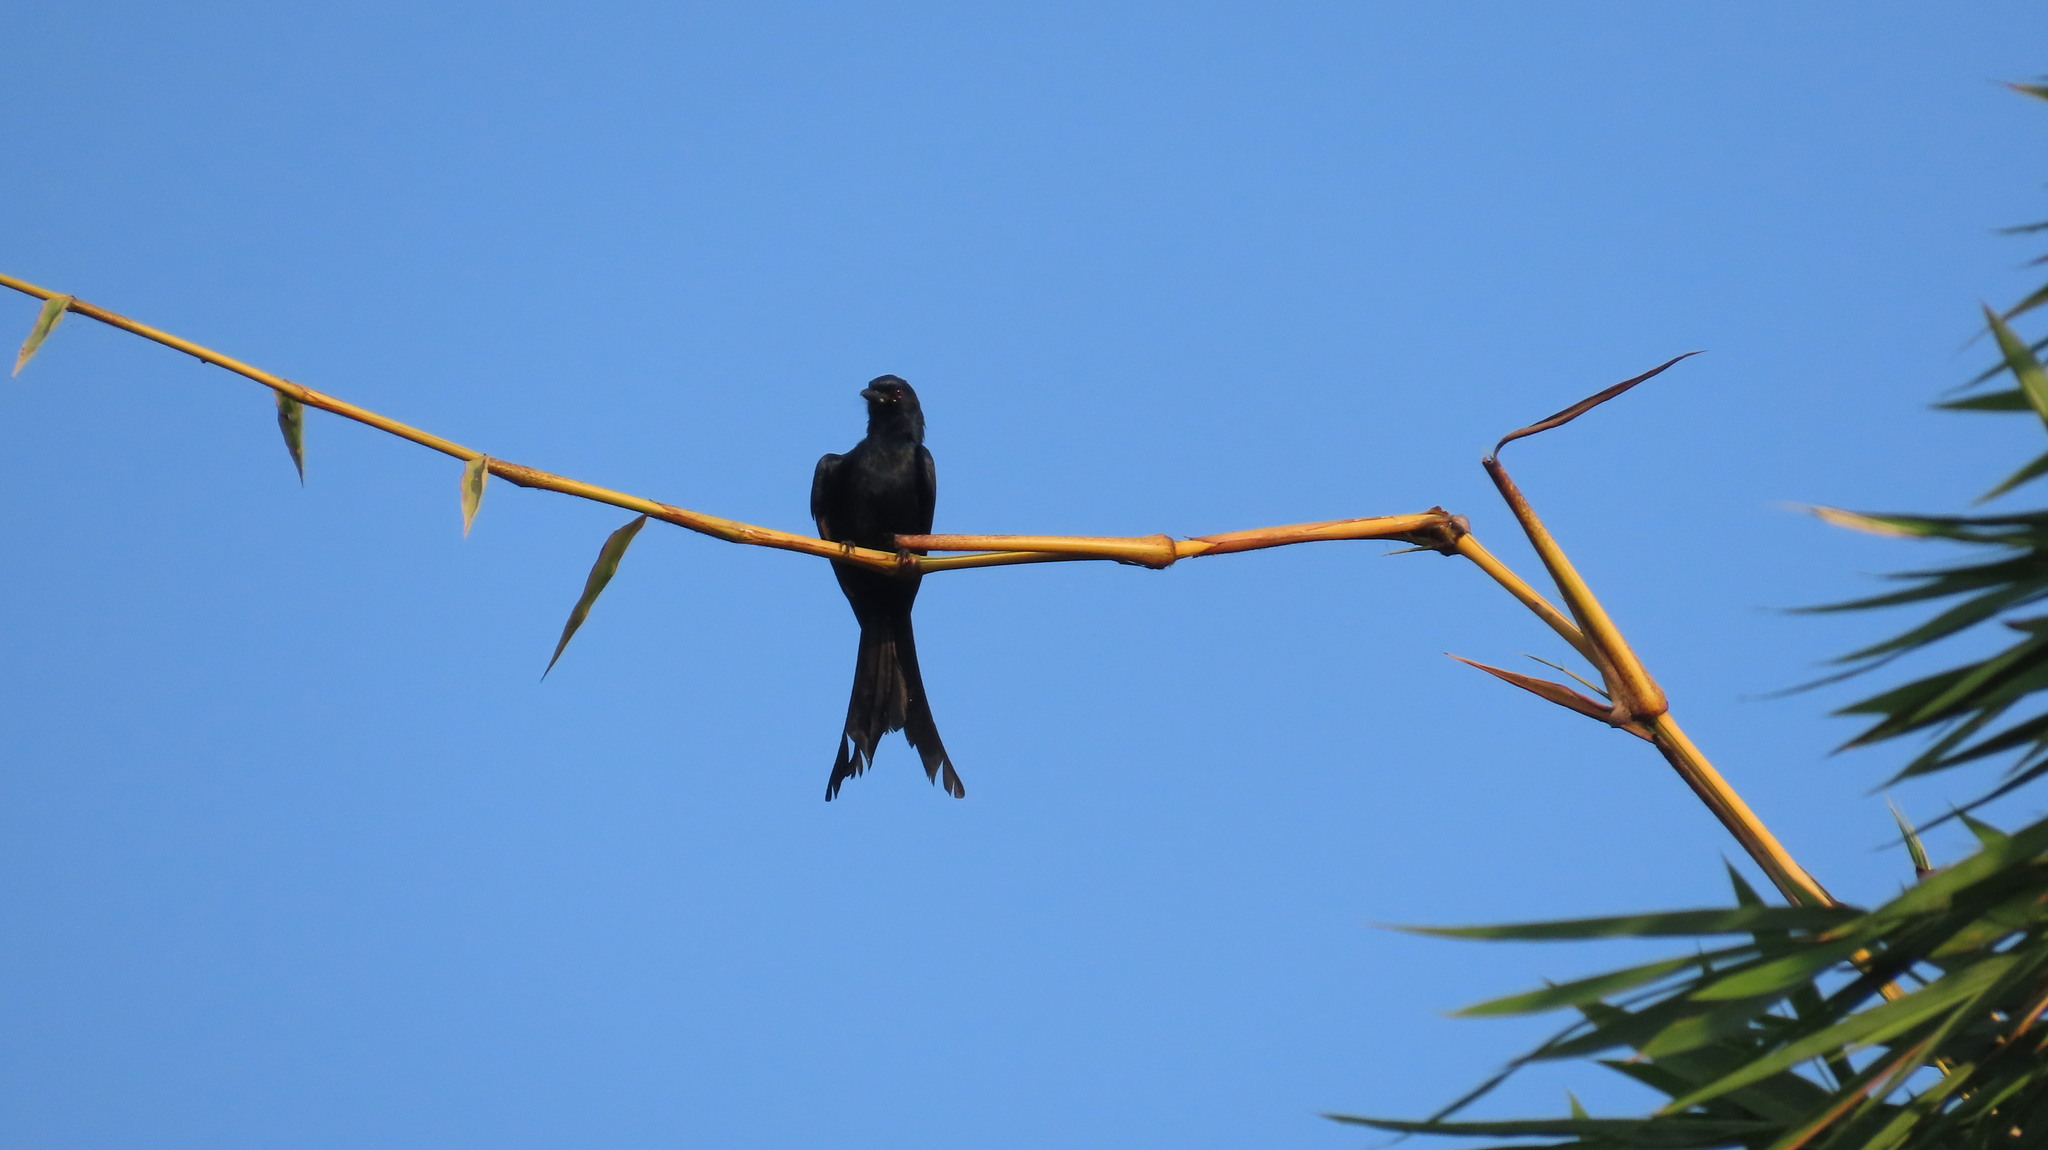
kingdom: Animalia
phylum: Chordata
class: Aves
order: Passeriformes
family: Dicruridae
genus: Dicrurus
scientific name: Dicrurus macrocercus
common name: Black drongo
